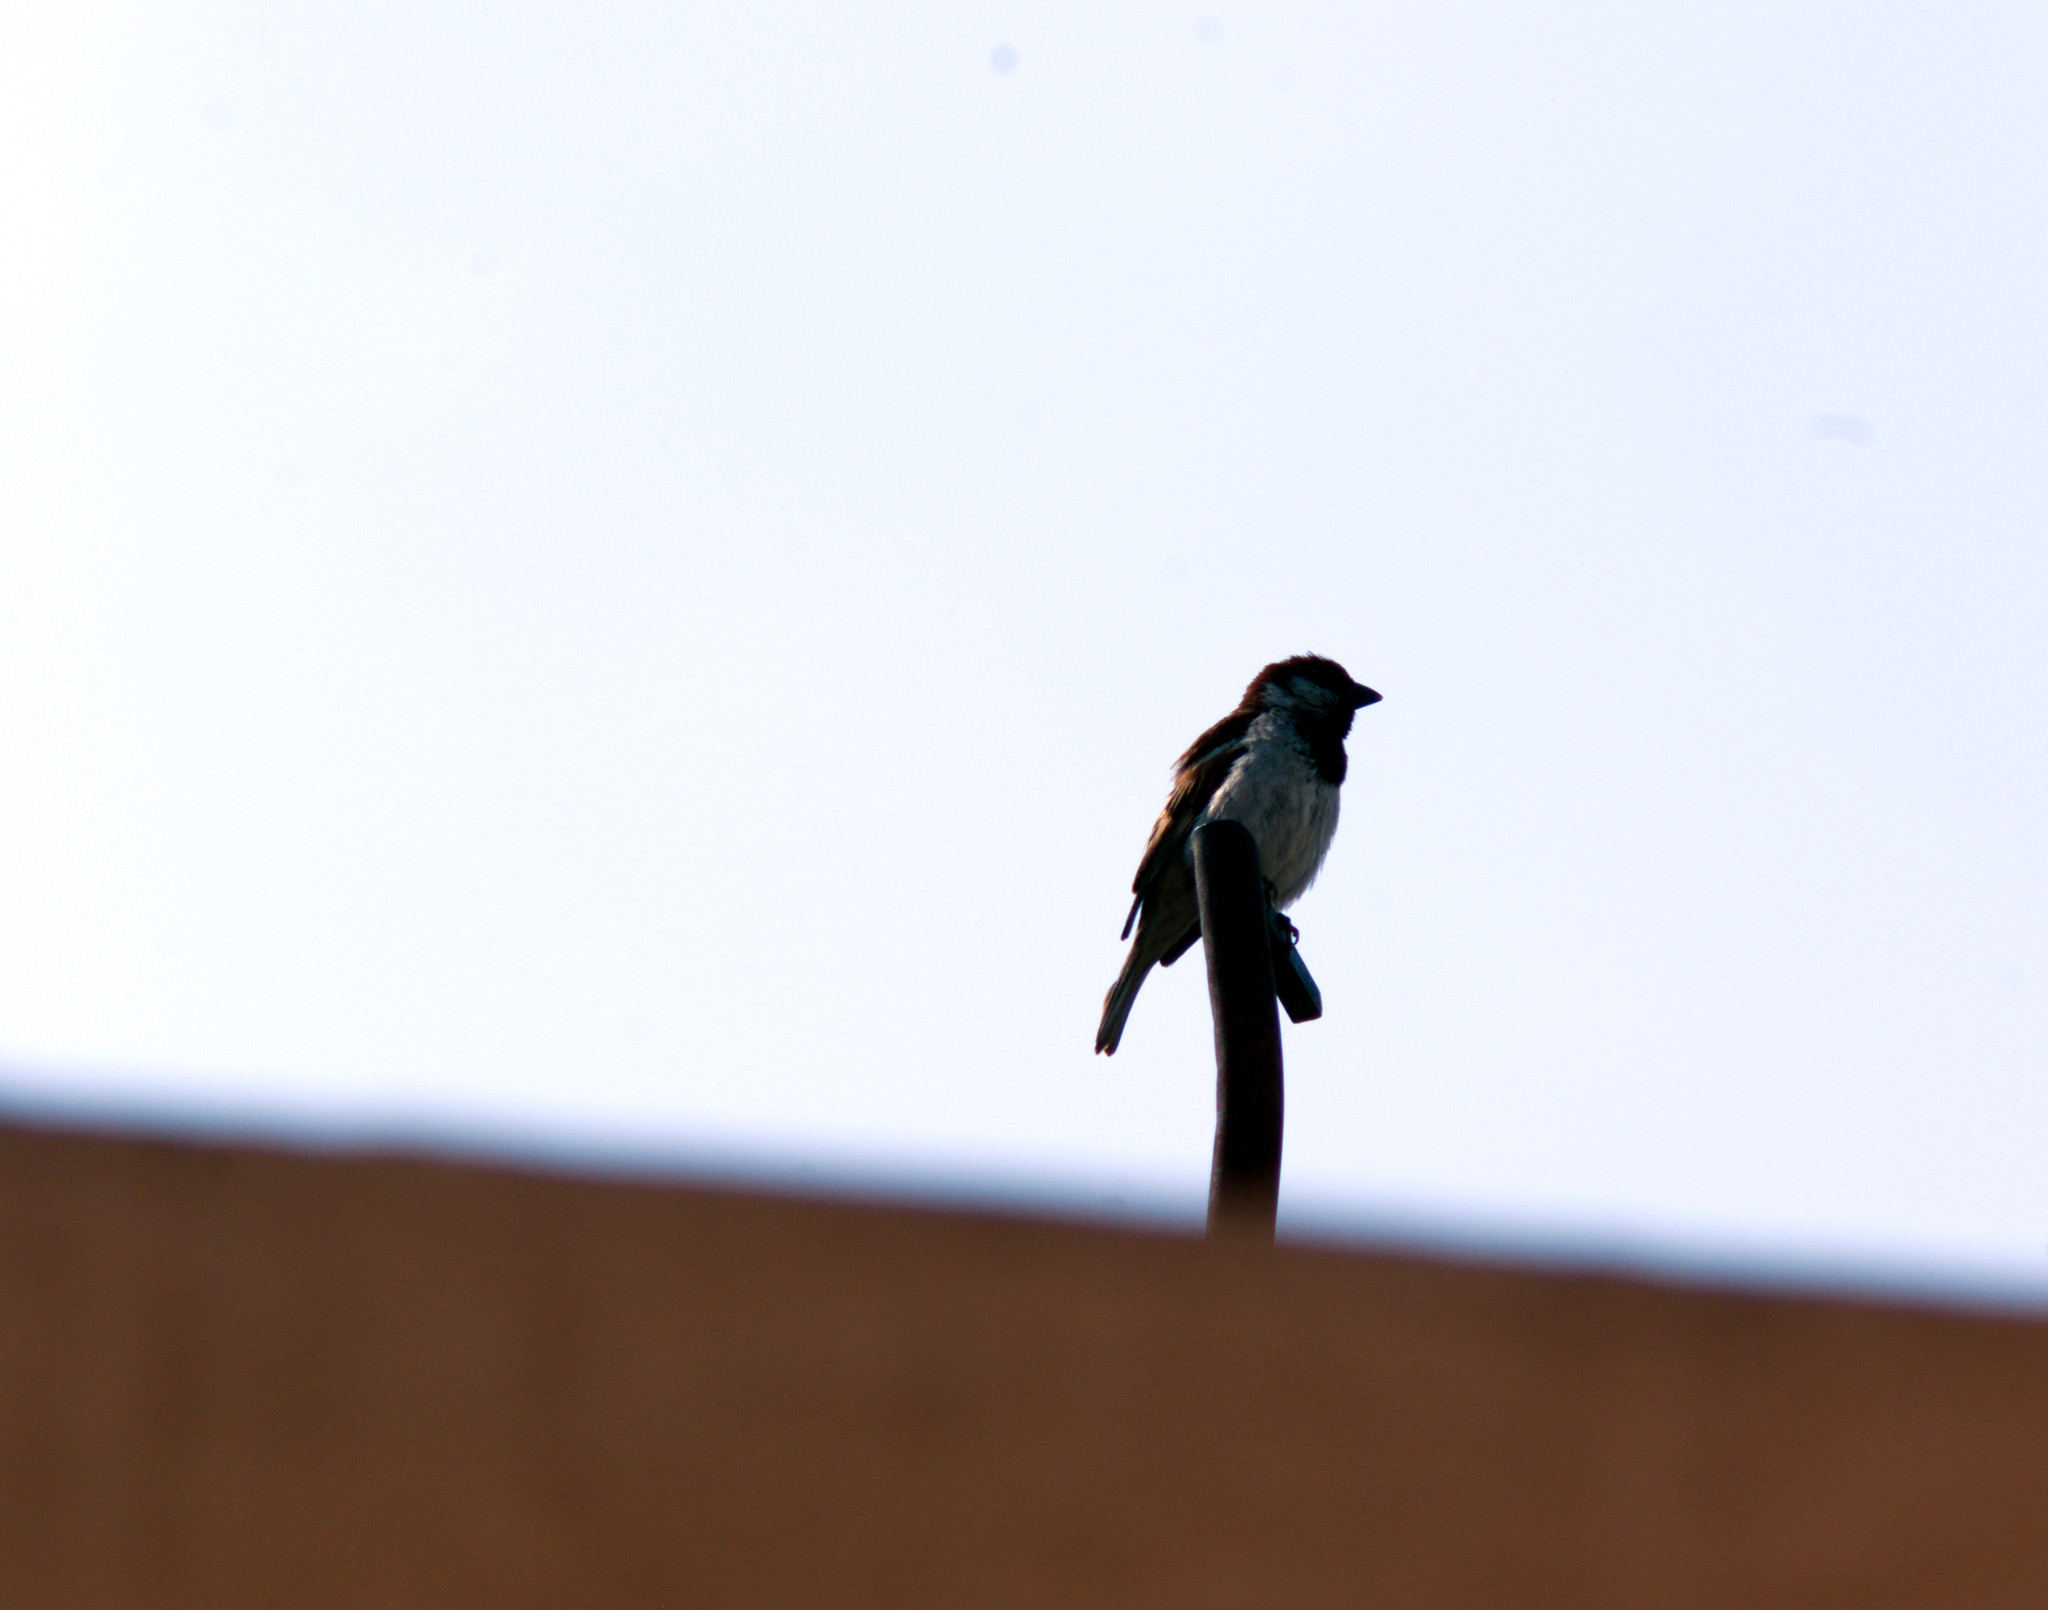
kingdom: Animalia
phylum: Chordata
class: Aves
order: Passeriformes
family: Passeridae
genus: Passer
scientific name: Passer domesticus
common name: House sparrow
